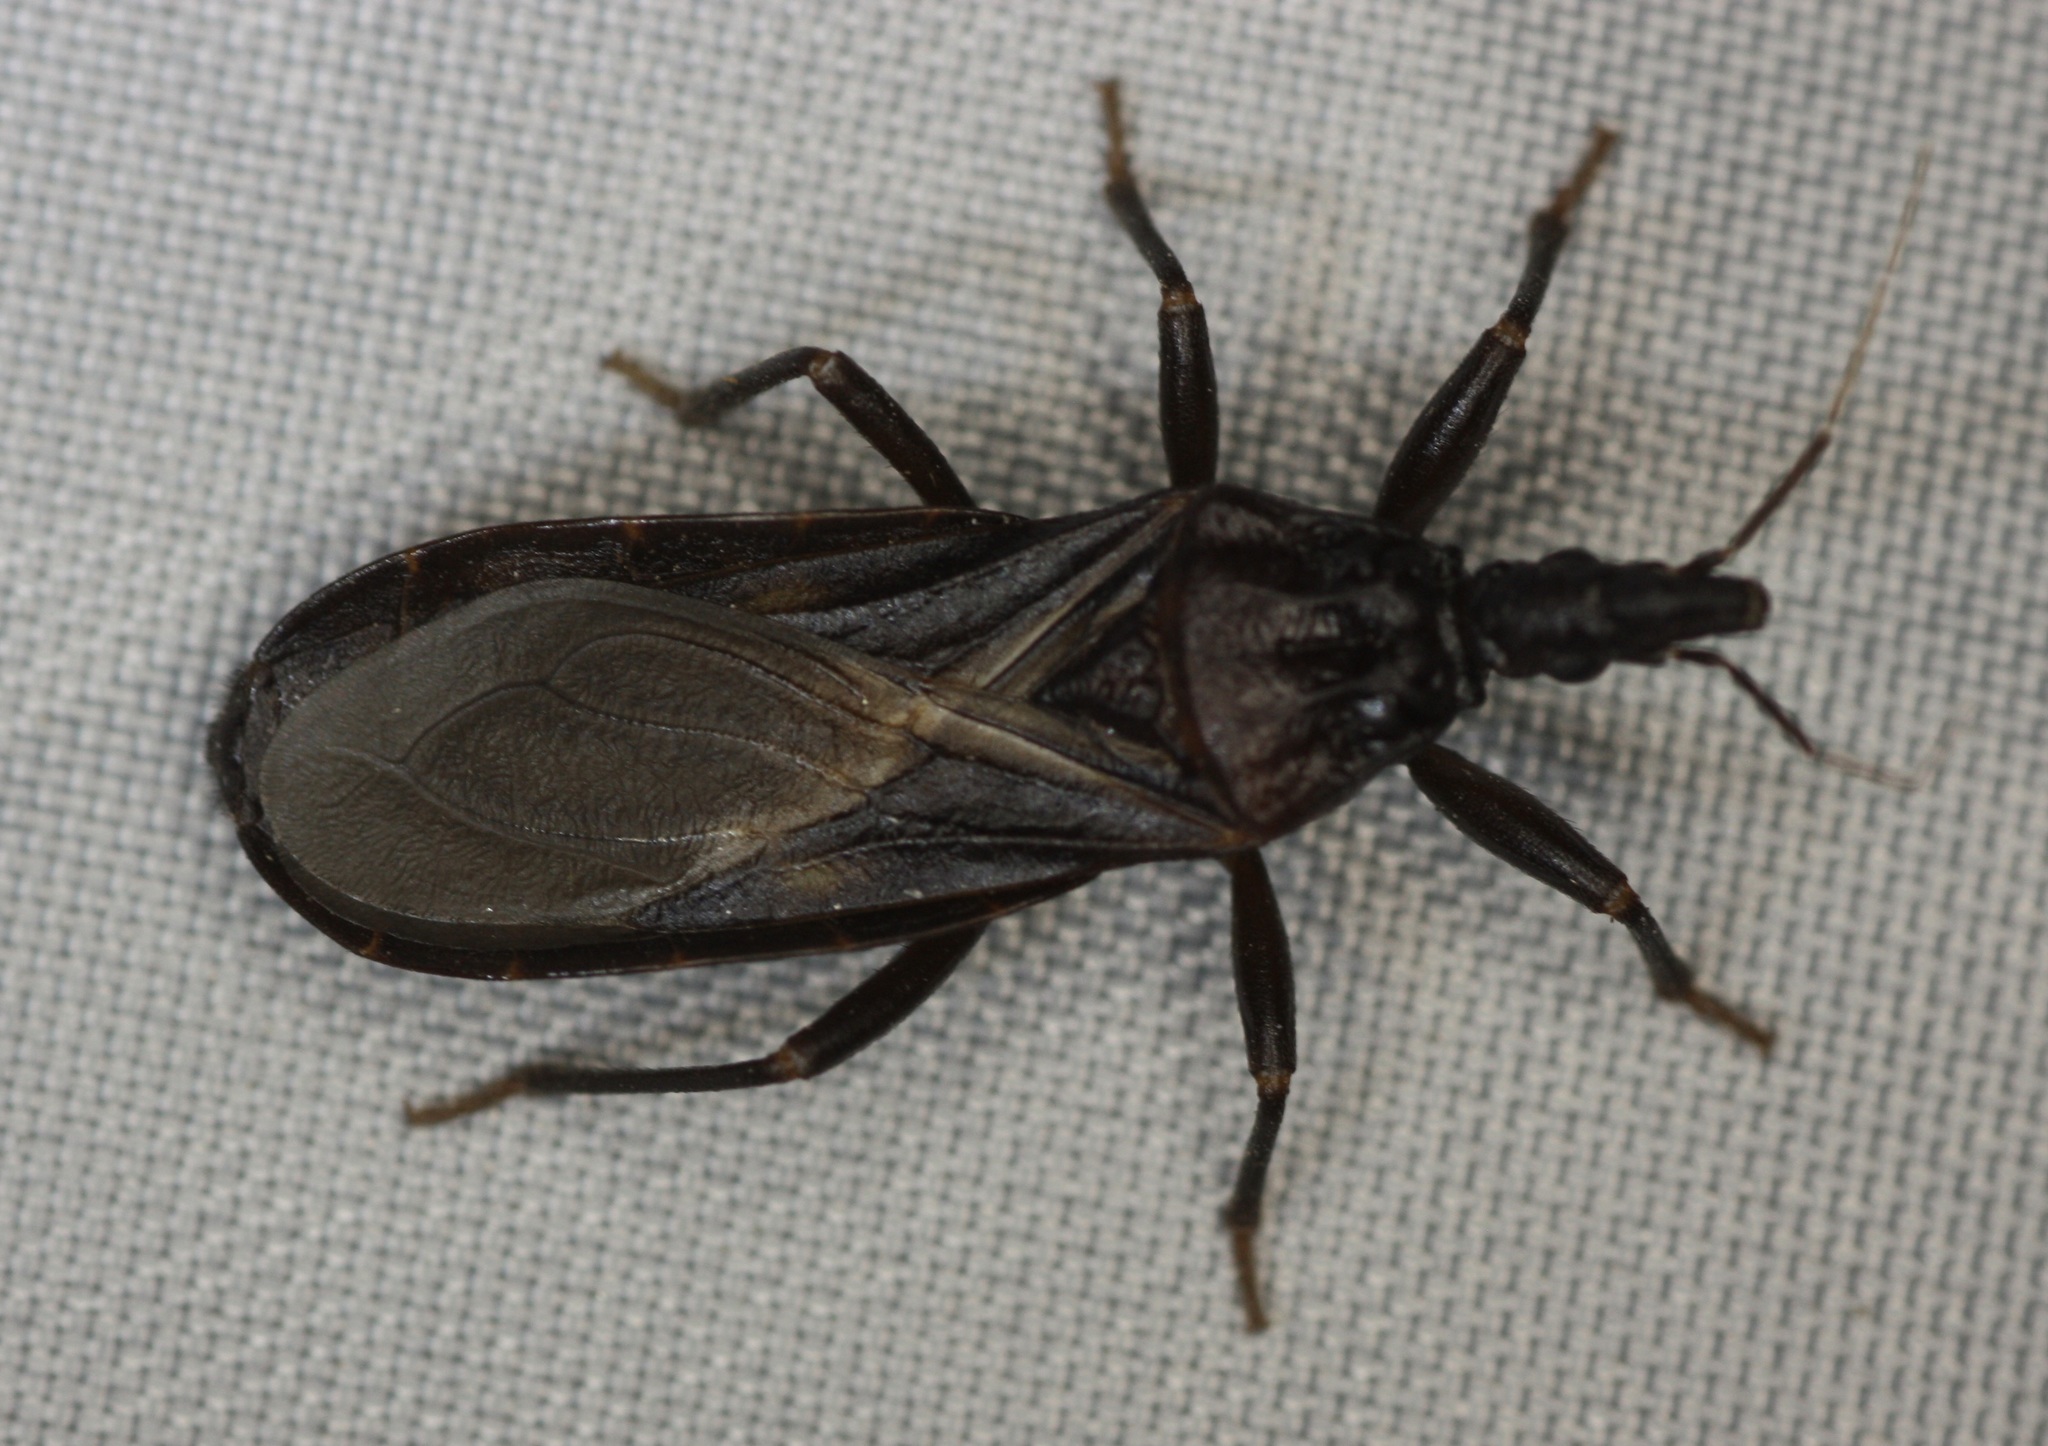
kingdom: Animalia
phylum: Arthropoda
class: Insecta
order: Hemiptera
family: Reduviidae
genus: Triatoma
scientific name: Triatoma protracta
